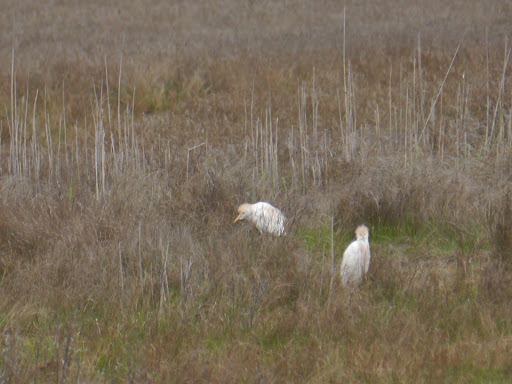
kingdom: Animalia
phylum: Chordata
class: Aves
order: Pelecaniformes
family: Ardeidae
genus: Bubulcus
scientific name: Bubulcus ibis
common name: Cattle egret
